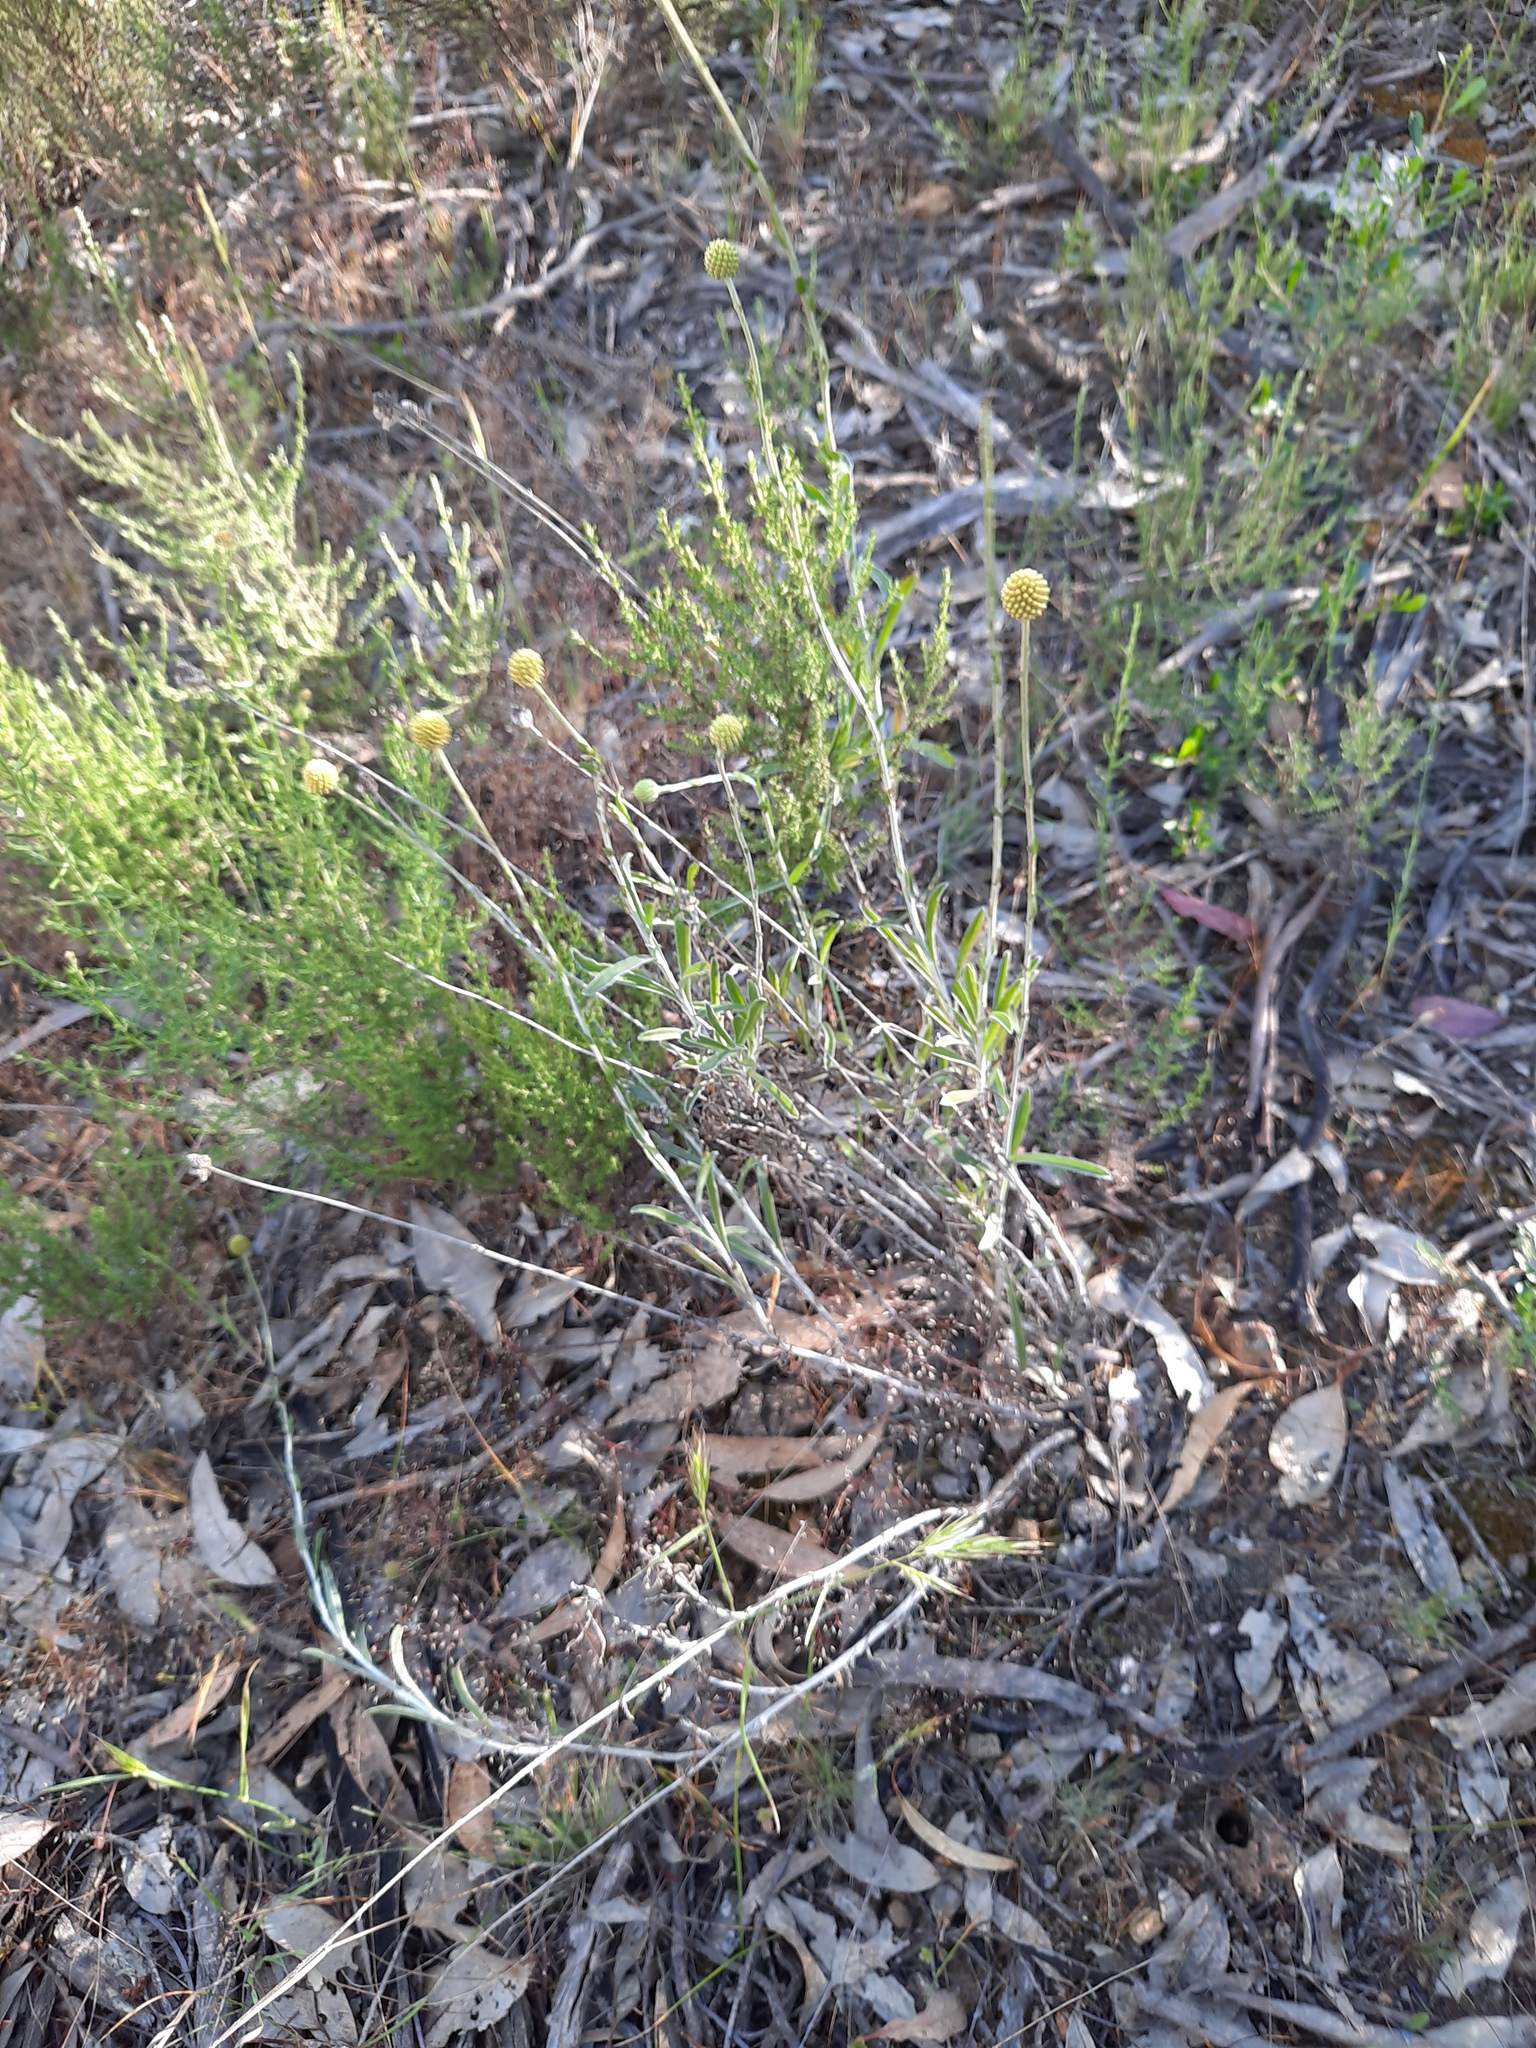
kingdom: Plantae
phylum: Tracheophyta
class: Magnoliopsida
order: Asterales
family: Asteraceae
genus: Pycnosorus
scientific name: Pycnosorus globosus
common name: Drumsticks
